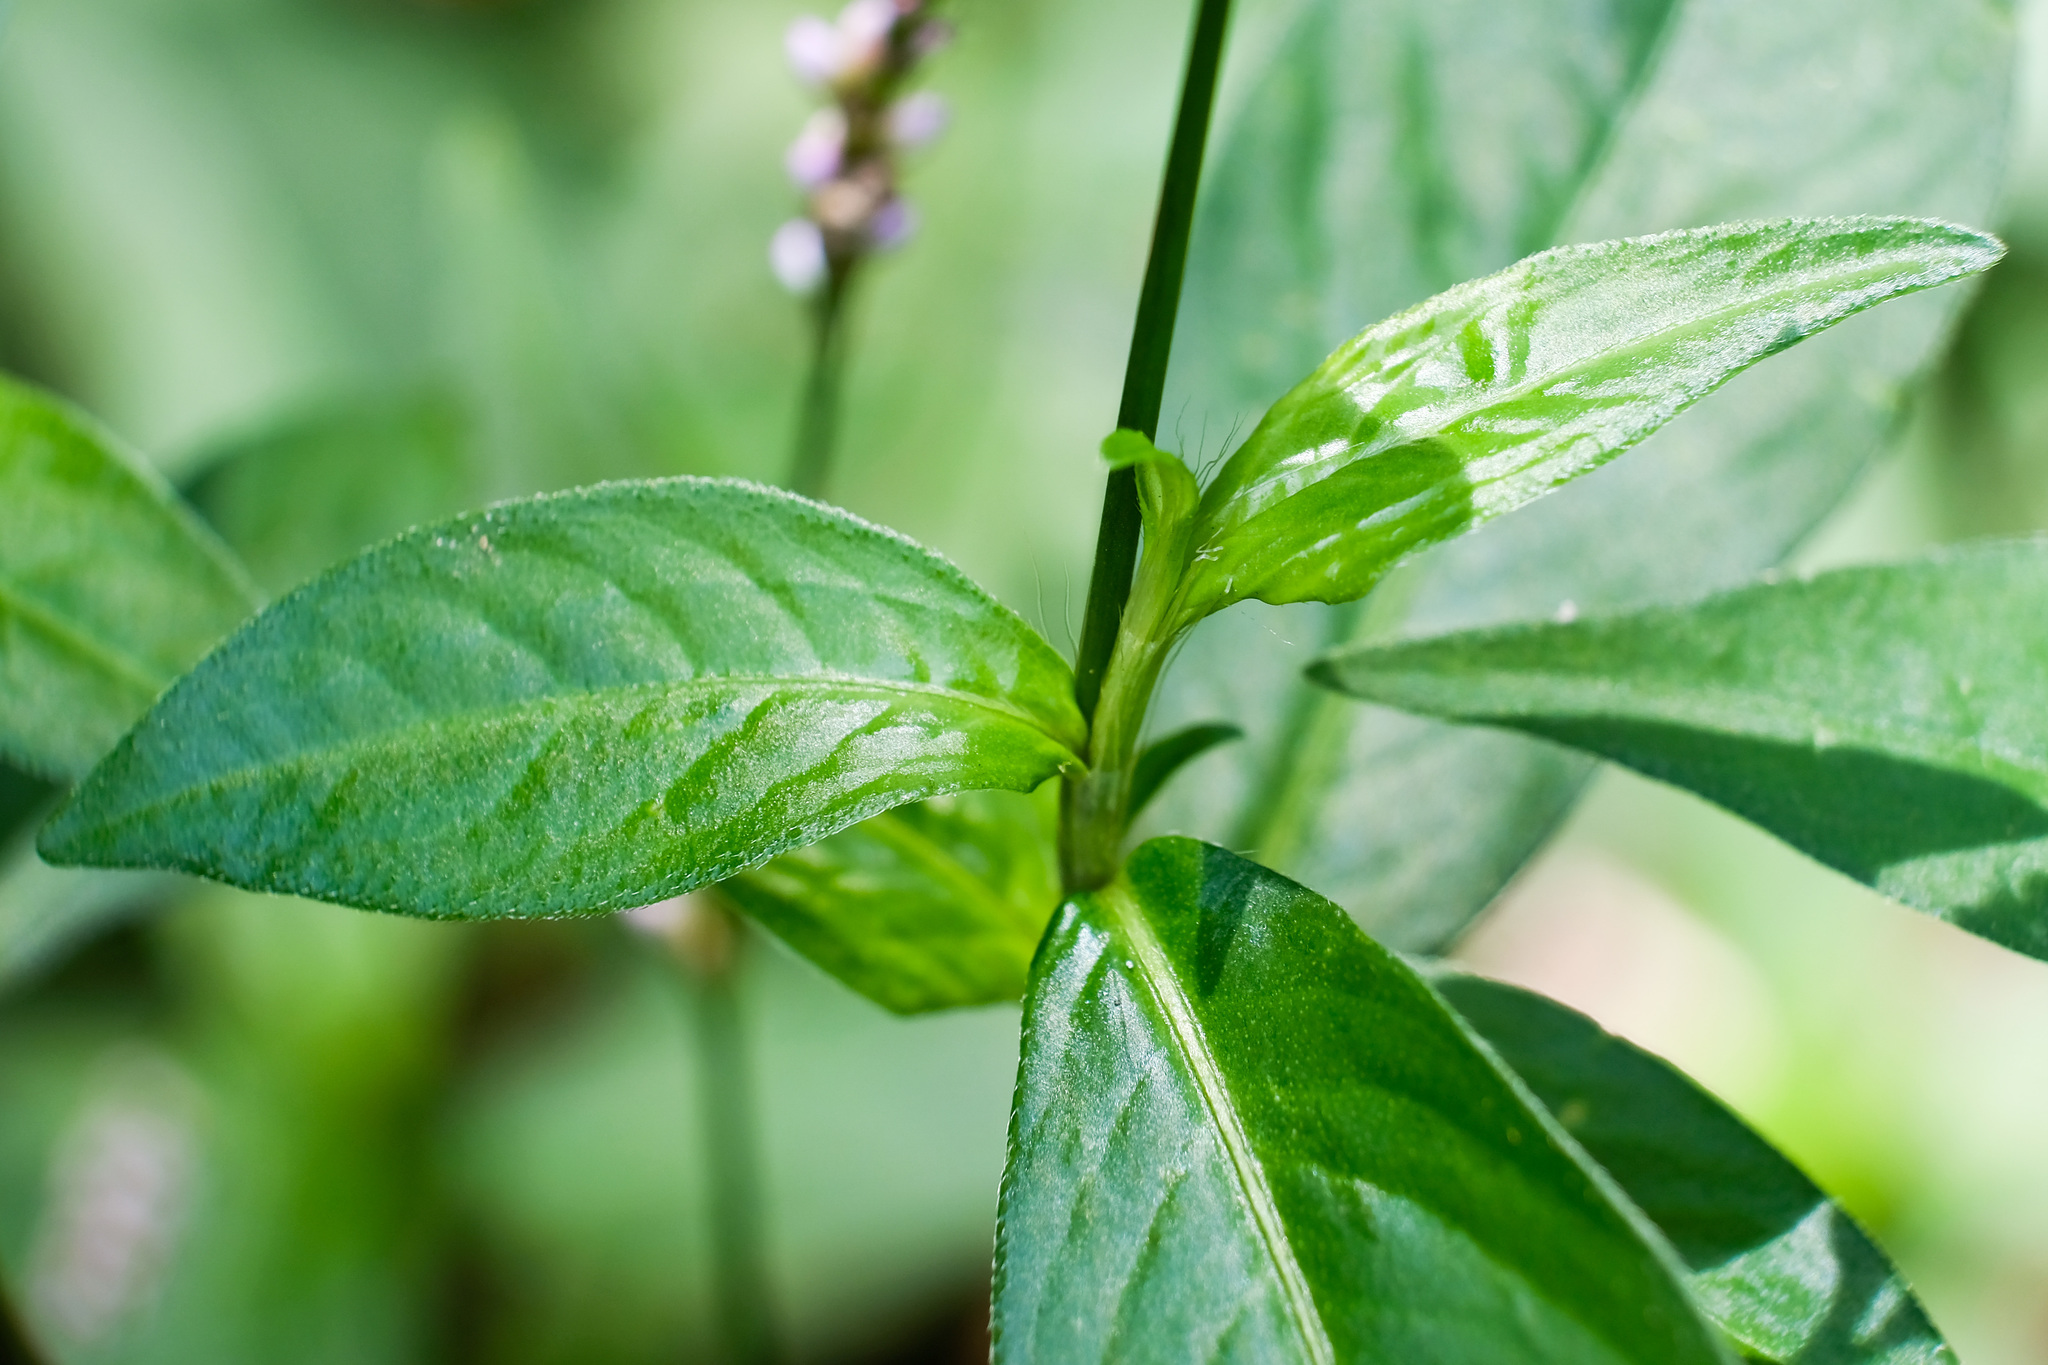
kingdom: Plantae
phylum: Tracheophyta
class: Magnoliopsida
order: Caryophyllales
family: Polygonaceae
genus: Persicaria
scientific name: Persicaria longiseta
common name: Bristly lady's-thumb
